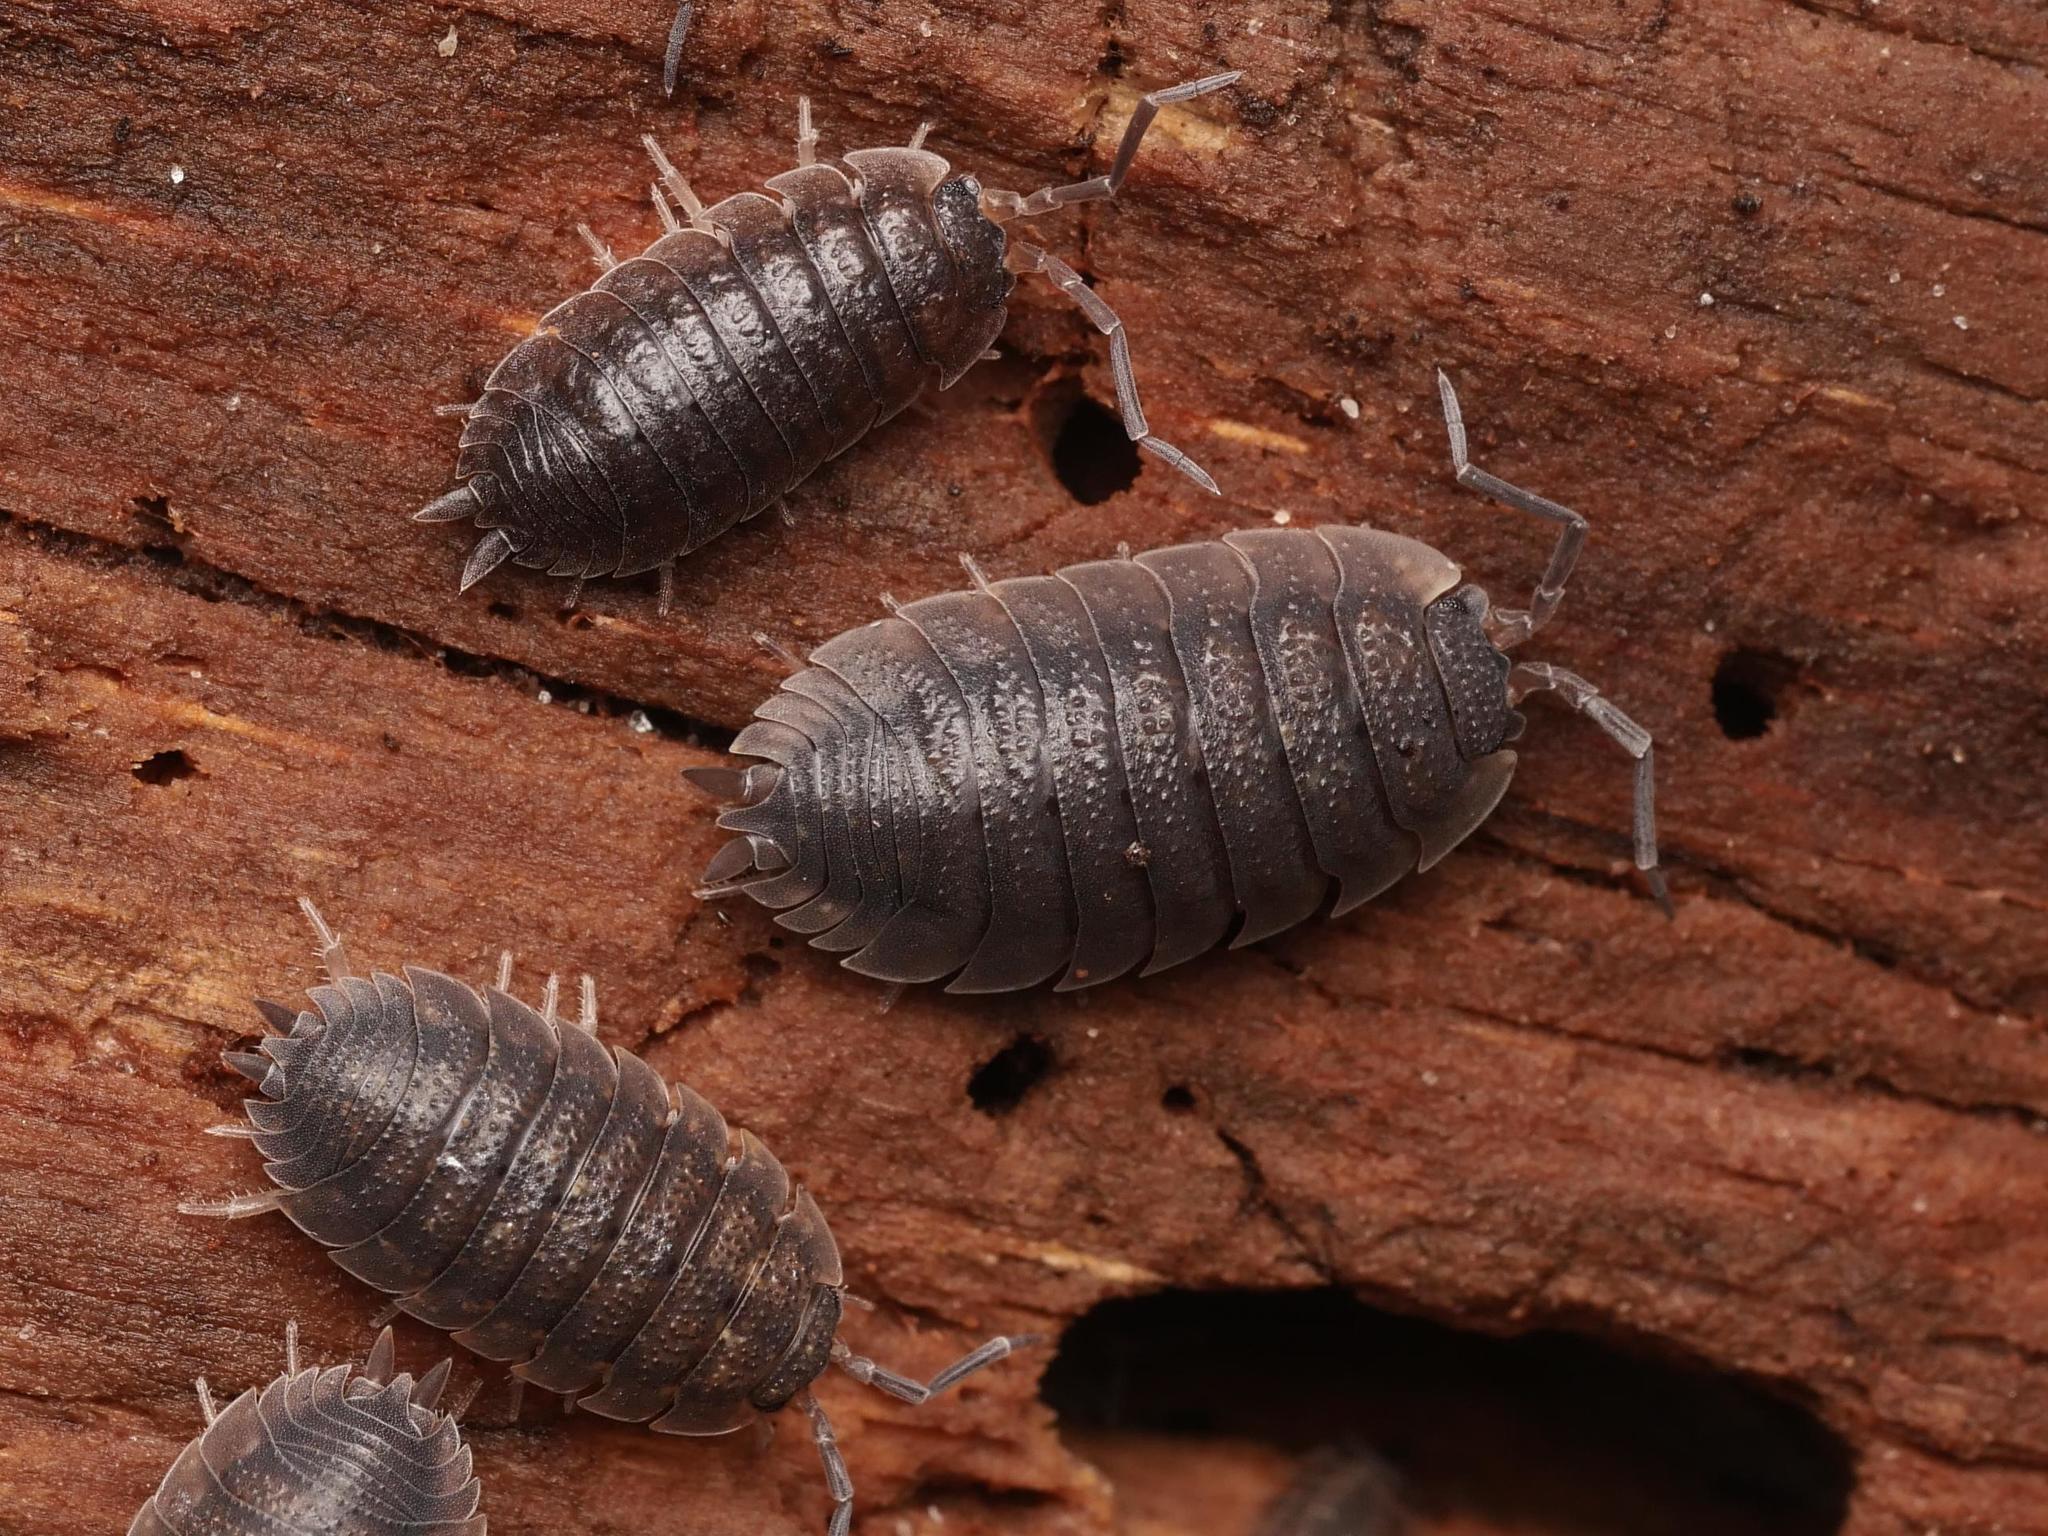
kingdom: Animalia
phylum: Arthropoda
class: Malacostraca
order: Isopoda
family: Porcellionidae
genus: Porcellio
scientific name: Porcellio scaber
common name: Common rough woodlouse
